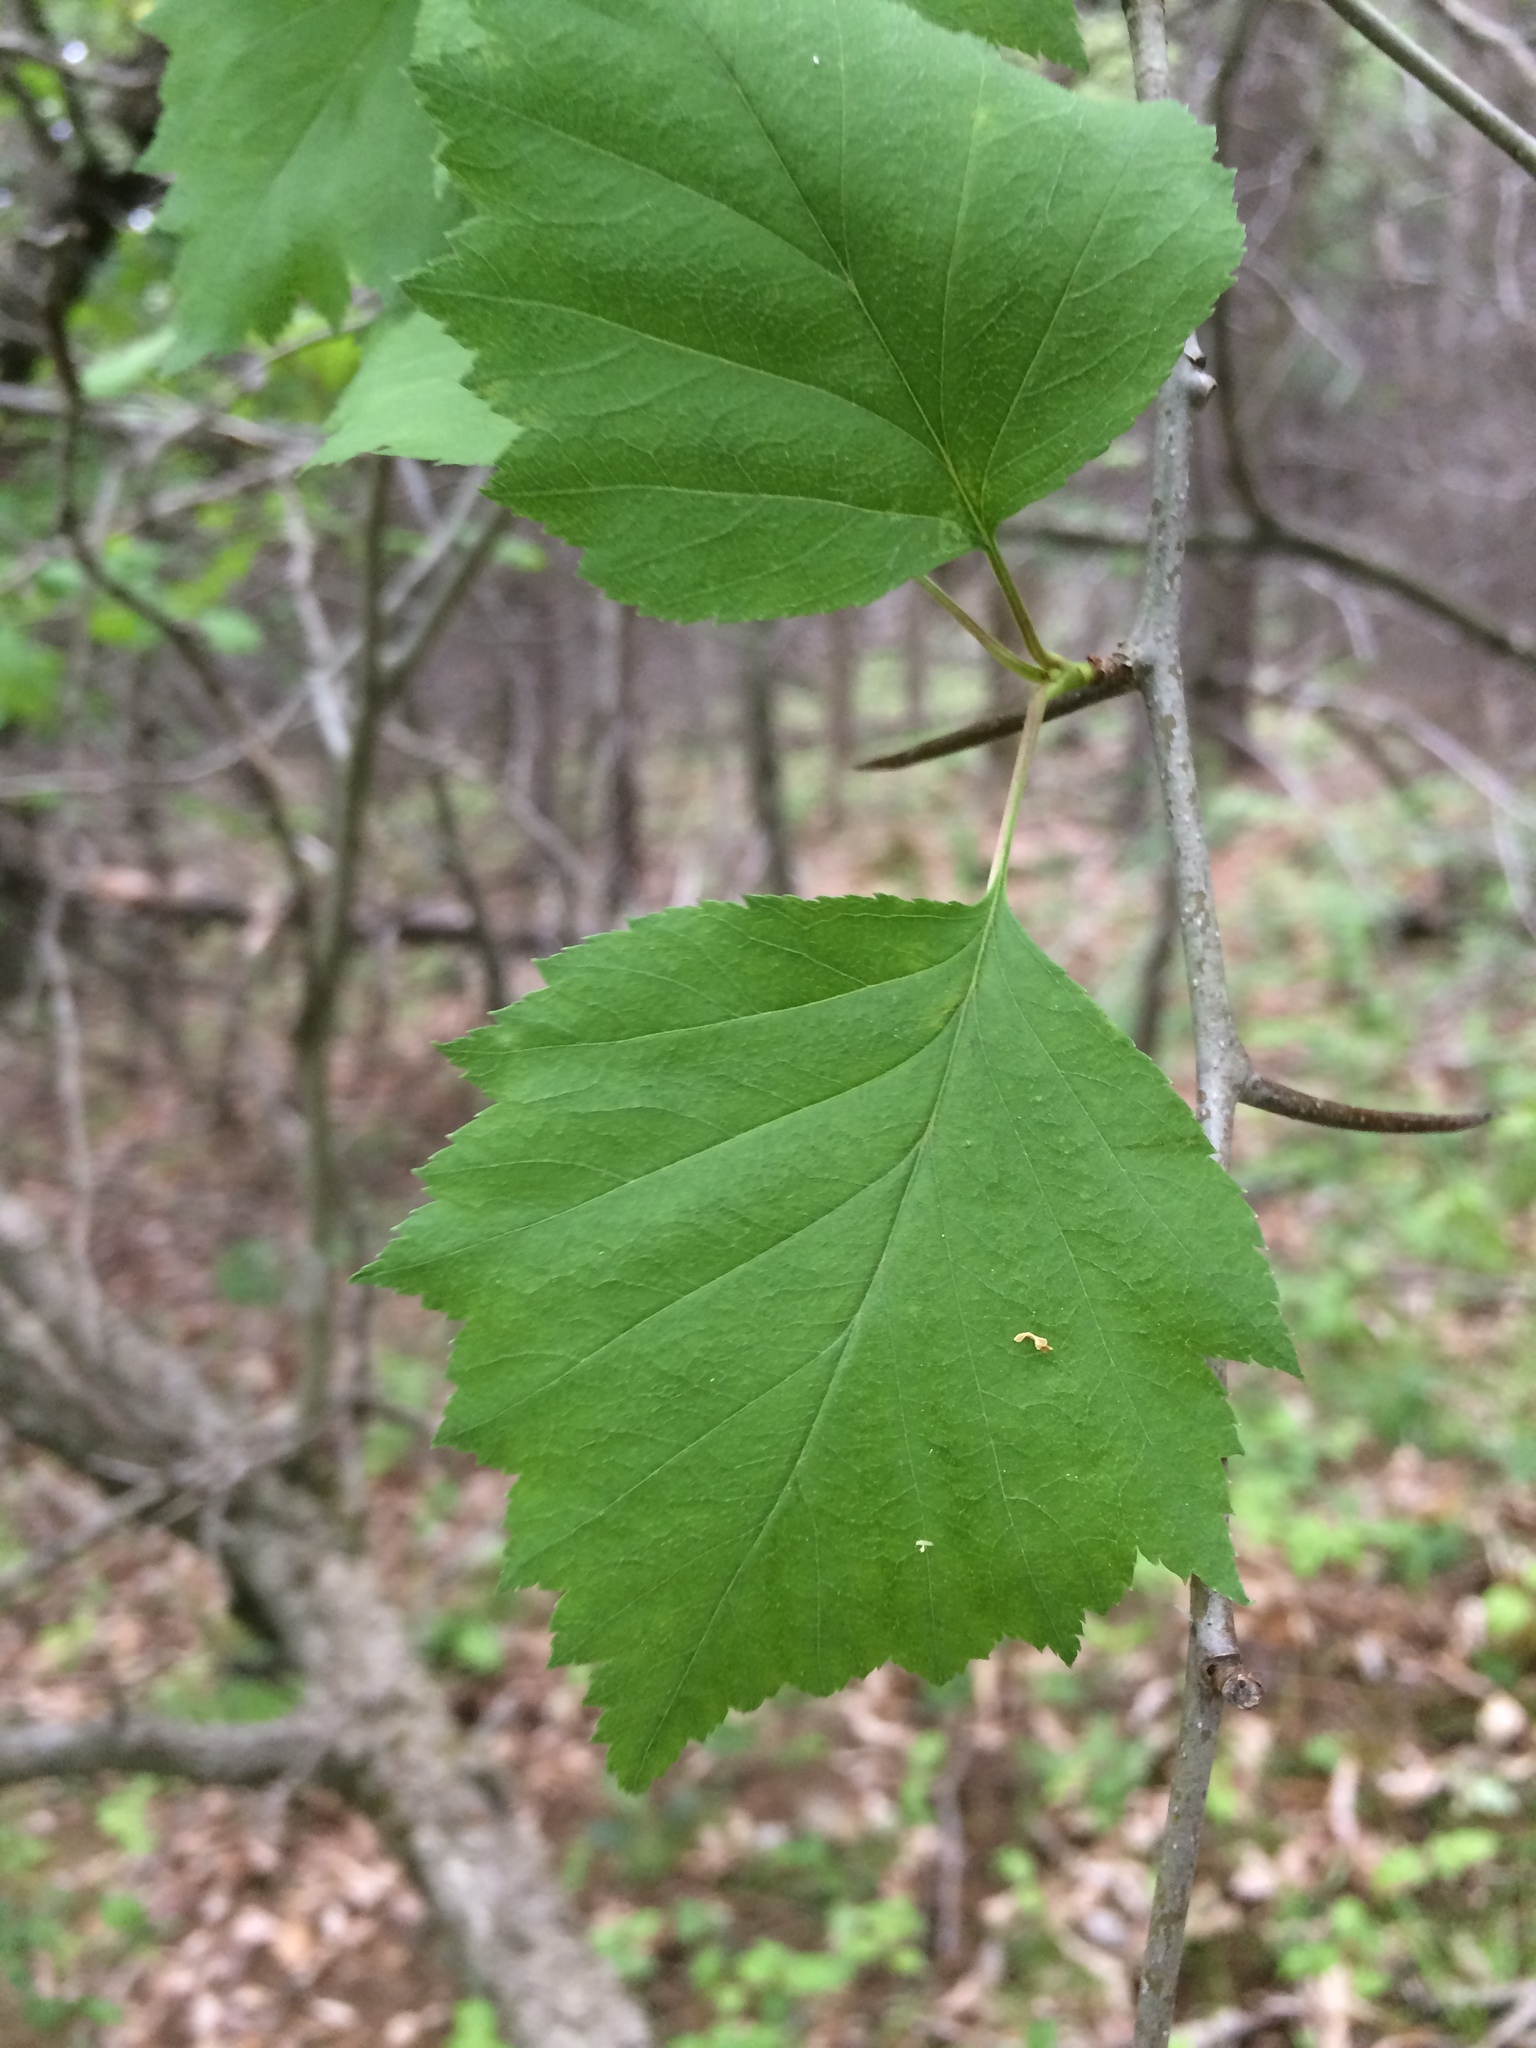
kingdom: Plantae
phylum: Tracheophyta
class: Magnoliopsida
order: Rosales
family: Rosaceae
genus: Crataegus
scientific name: Crataegus schuettei
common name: Schuette's hawthorn
